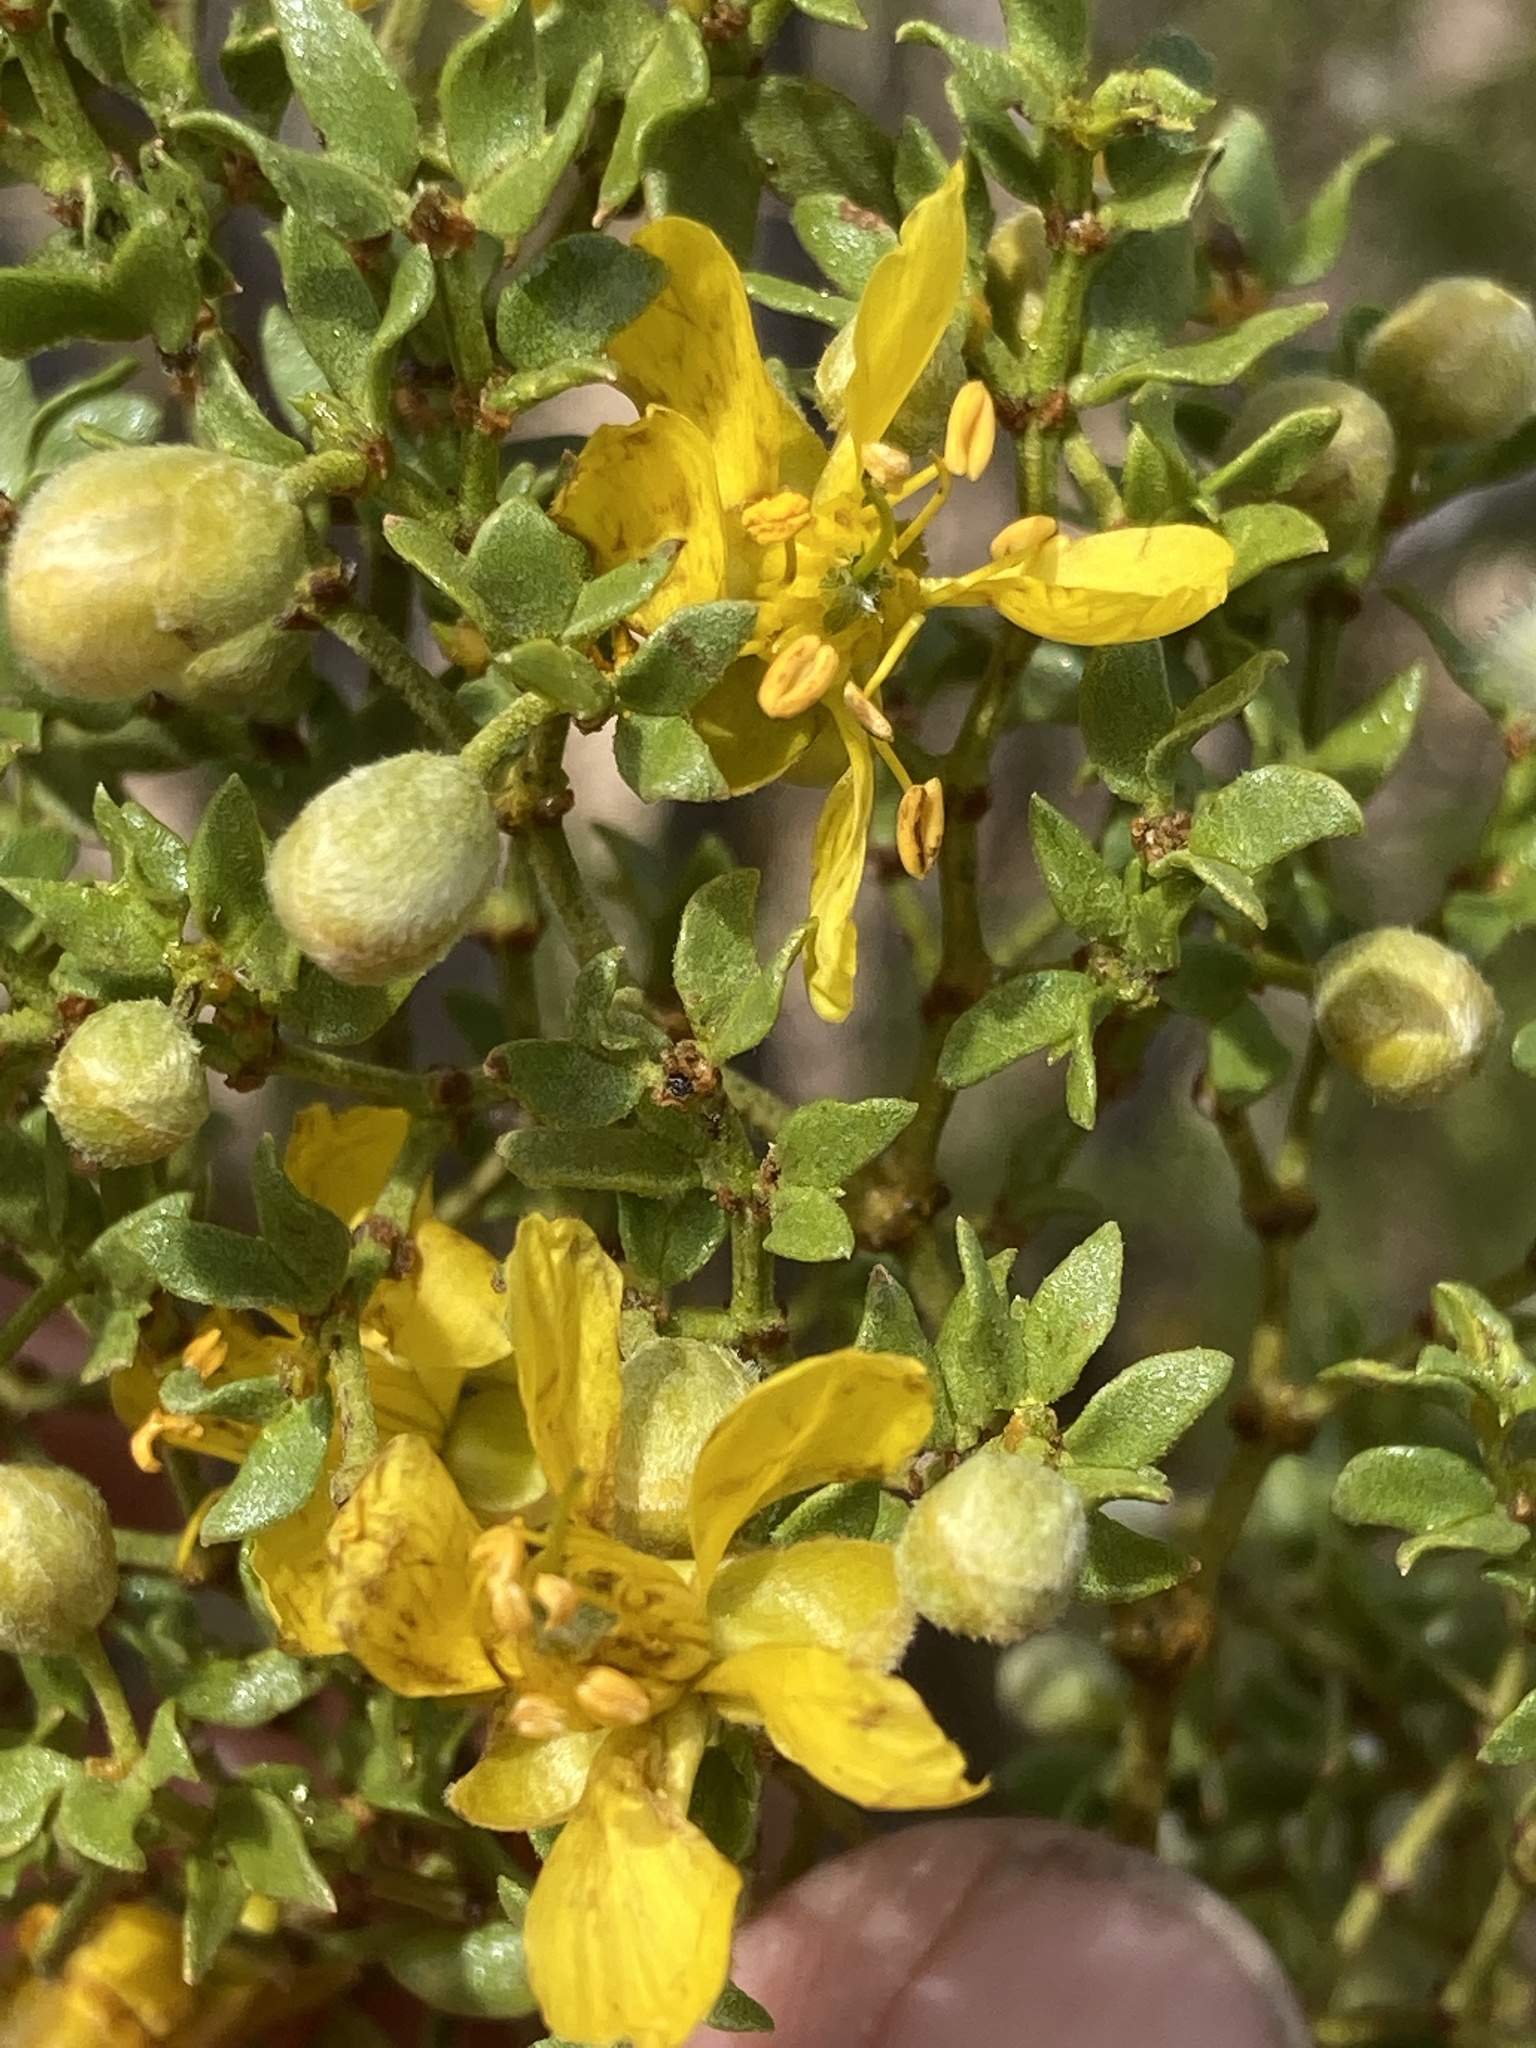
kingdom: Plantae
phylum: Tracheophyta
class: Magnoliopsida
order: Zygophyllales
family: Zygophyllaceae
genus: Larrea
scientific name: Larrea tridentata
